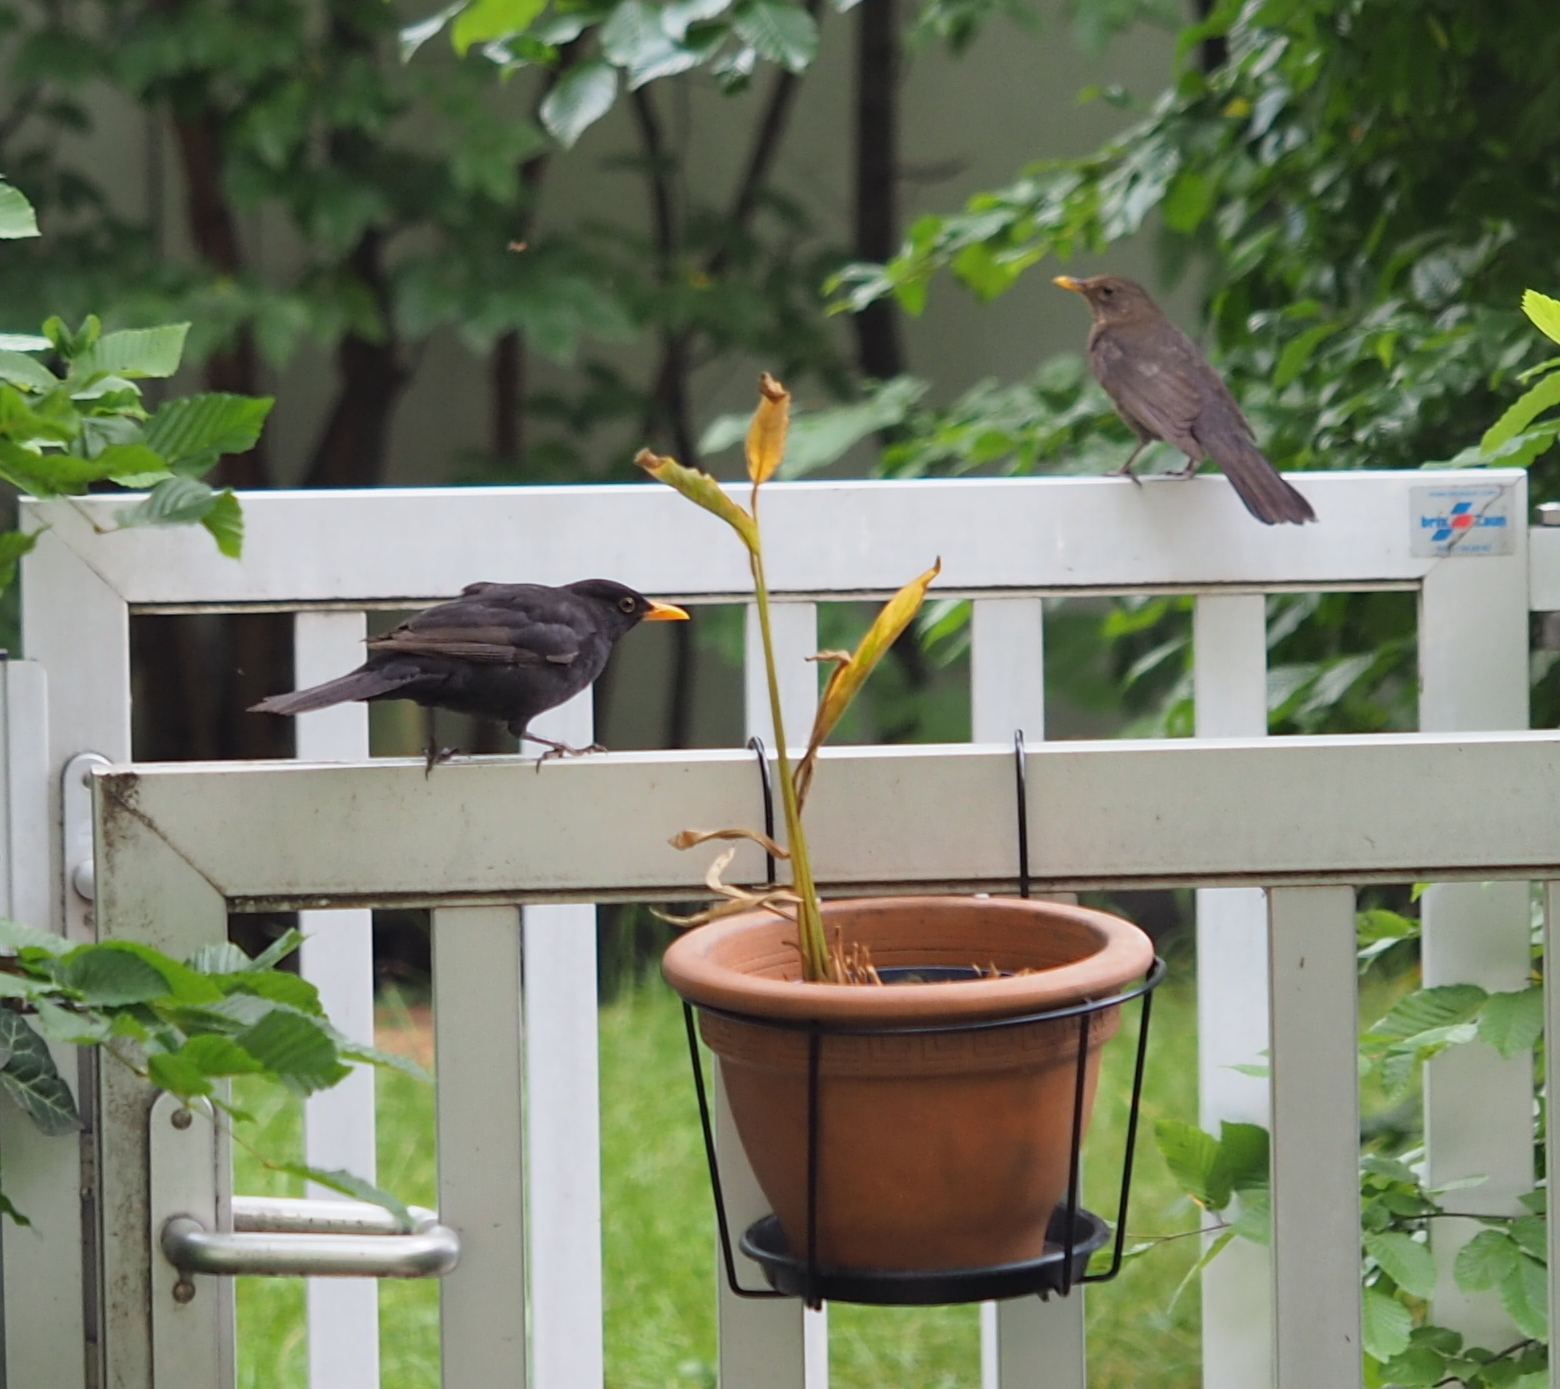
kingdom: Animalia
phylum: Chordata
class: Aves
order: Passeriformes
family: Turdidae
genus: Turdus
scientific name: Turdus merula
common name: Common blackbird
